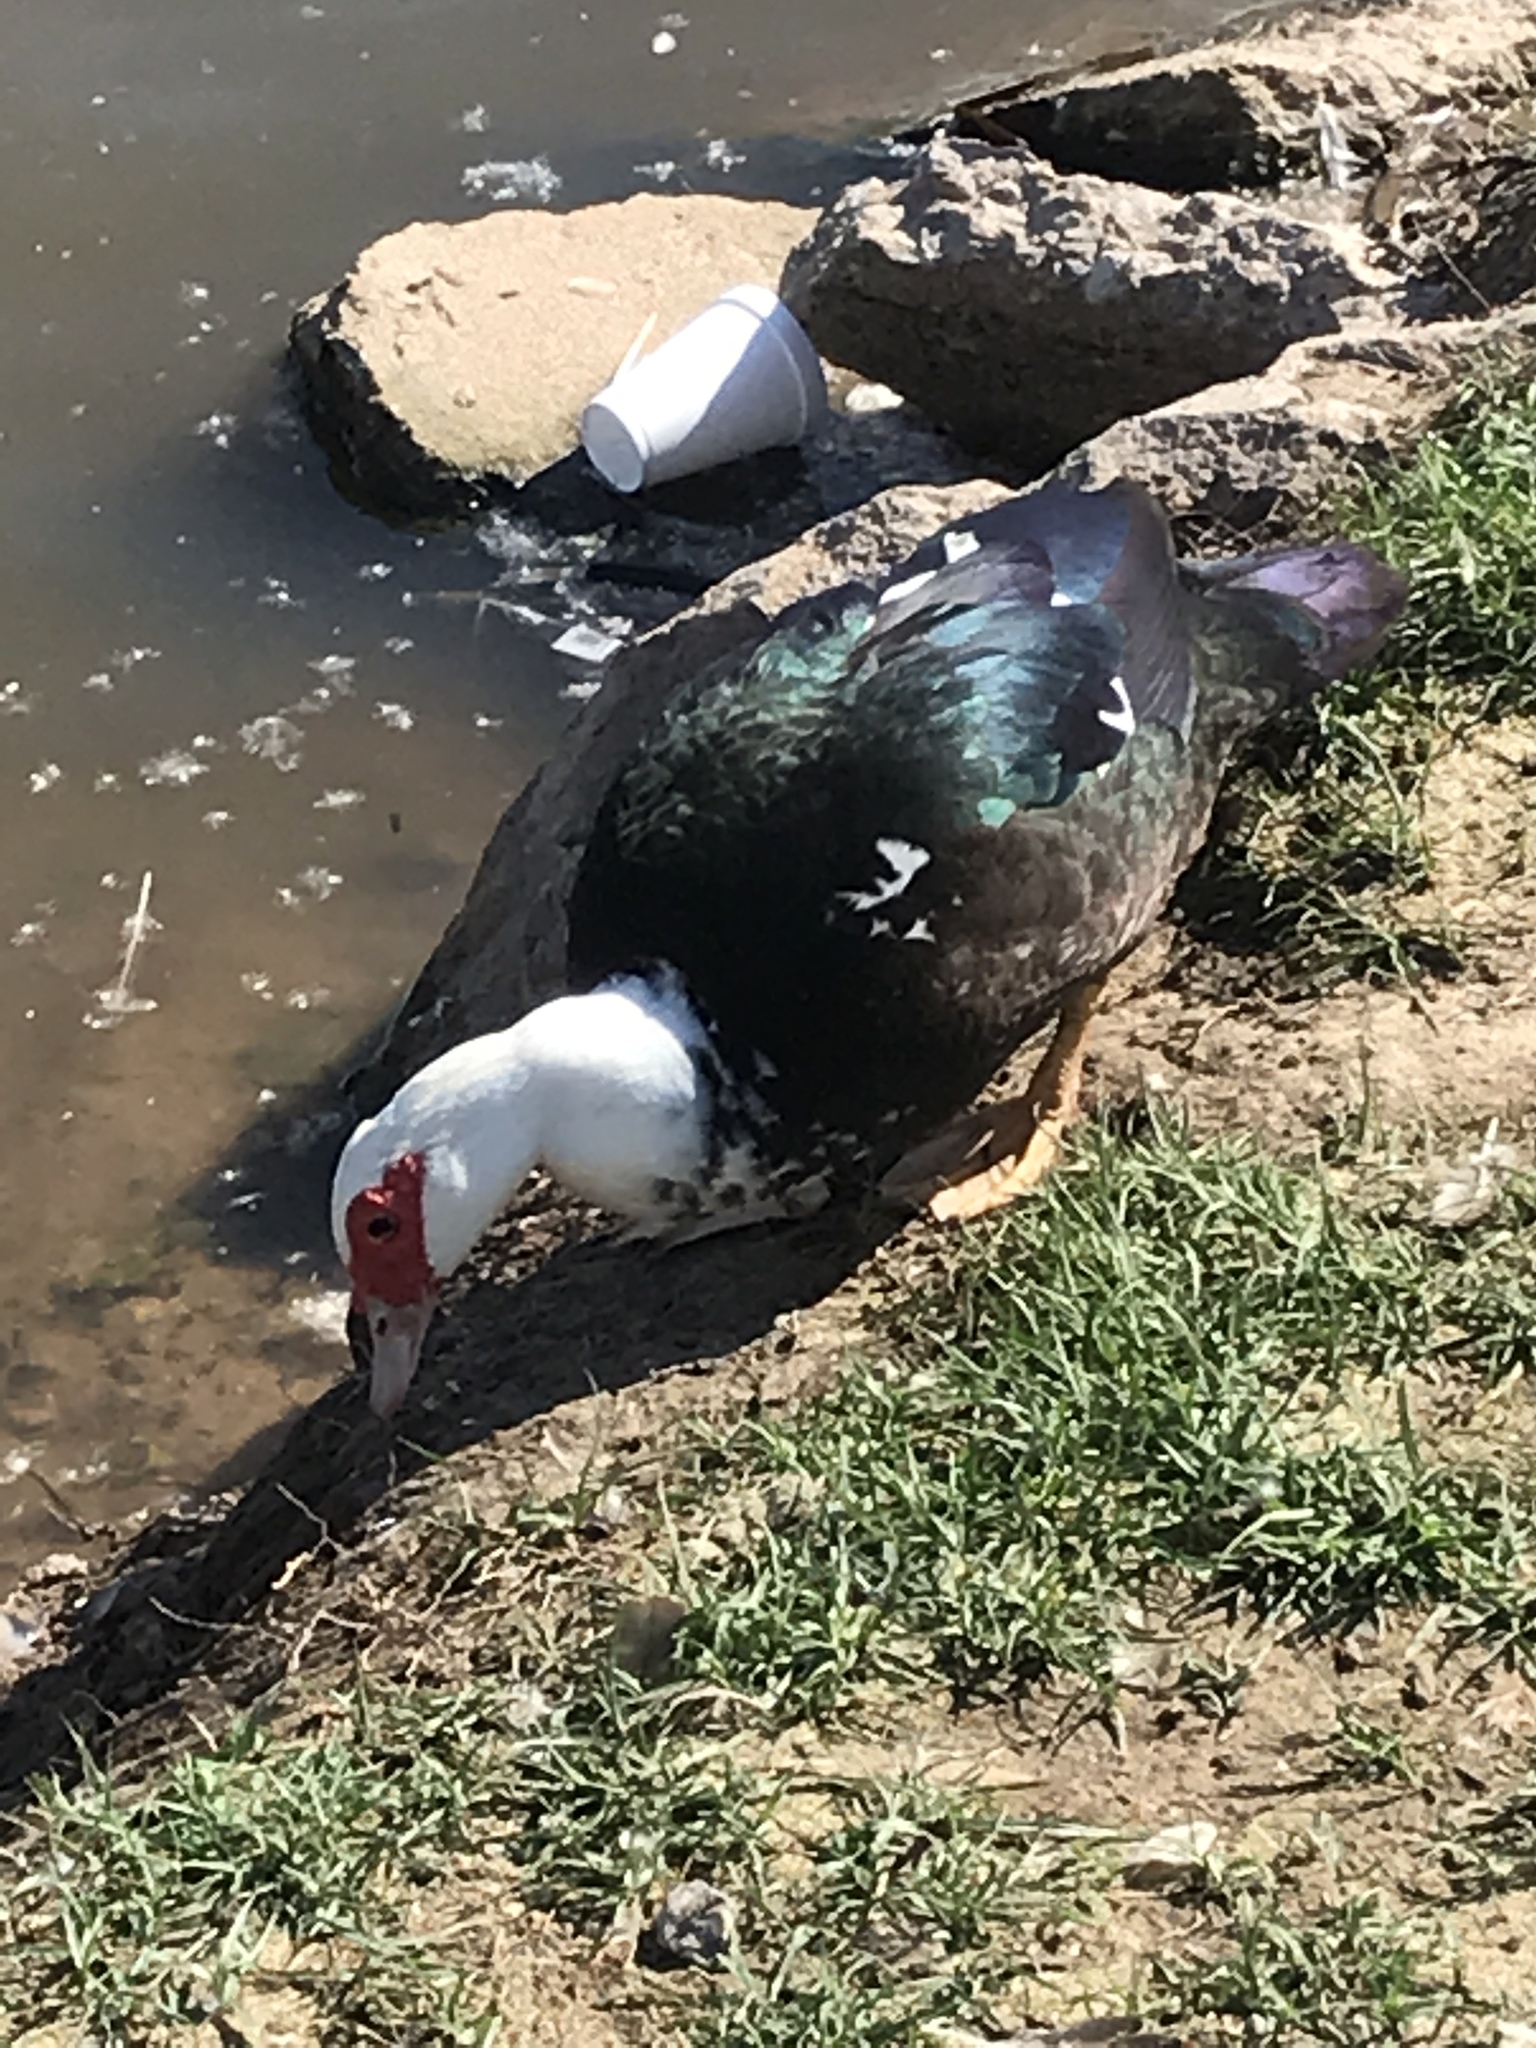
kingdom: Animalia
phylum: Chordata
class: Aves
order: Anseriformes
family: Anatidae
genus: Cairina
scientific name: Cairina moschata
